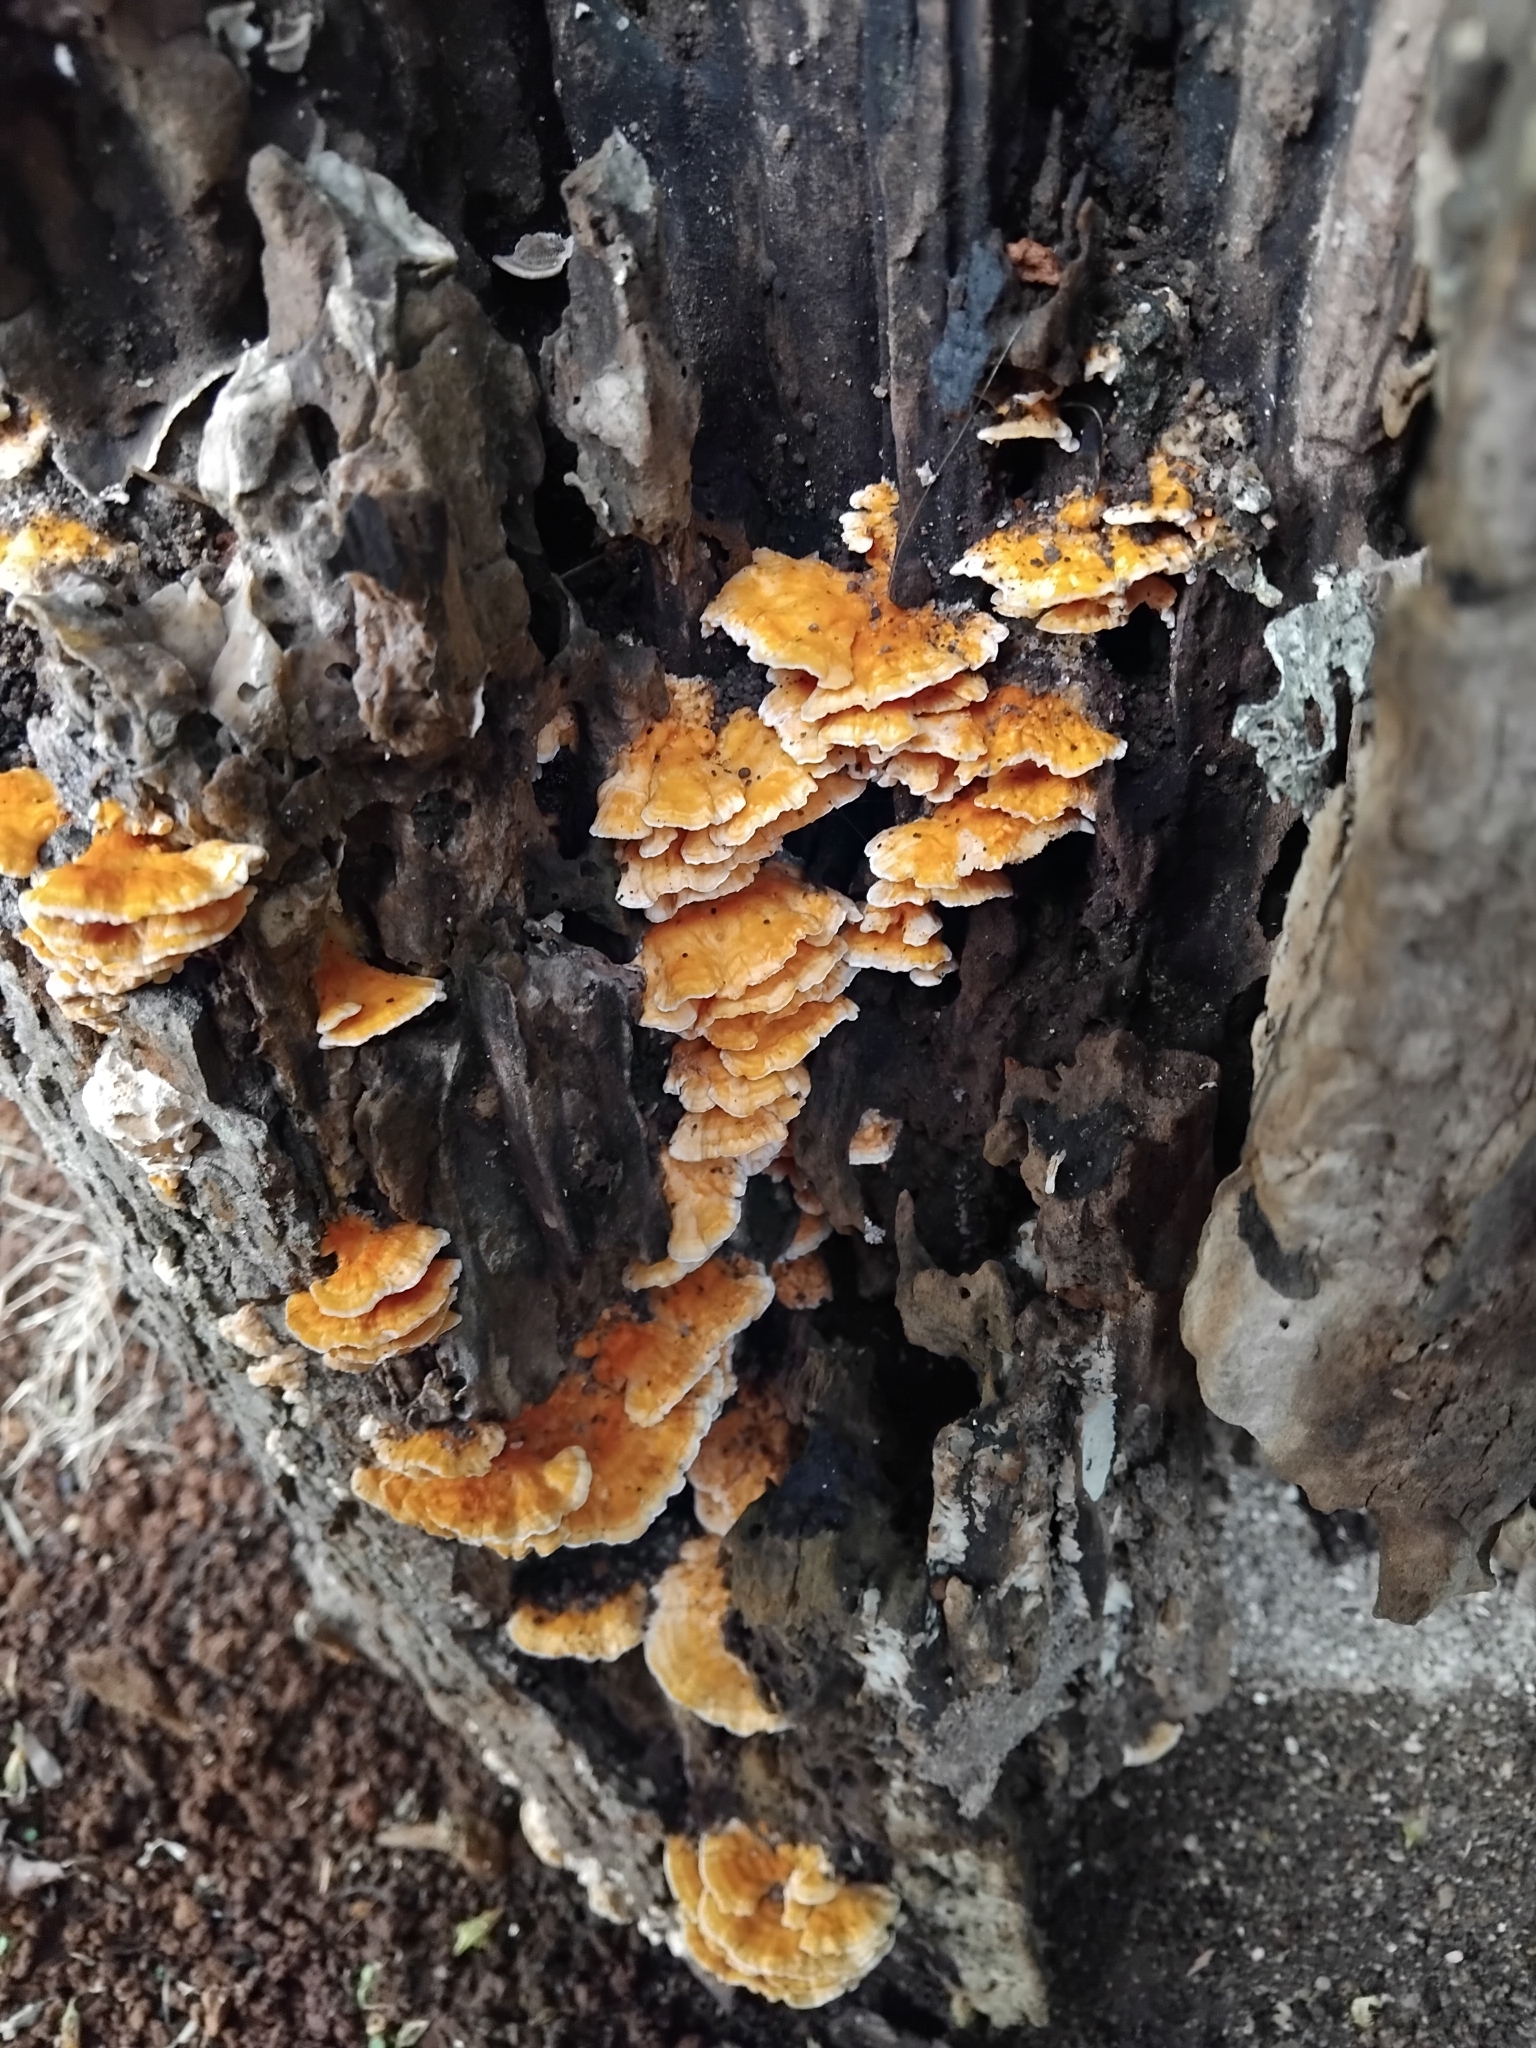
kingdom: Fungi
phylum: Basidiomycota
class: Agaricomycetes
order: Polyporales
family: Cerrenaceae
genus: Cerrena
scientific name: Cerrena zonata
